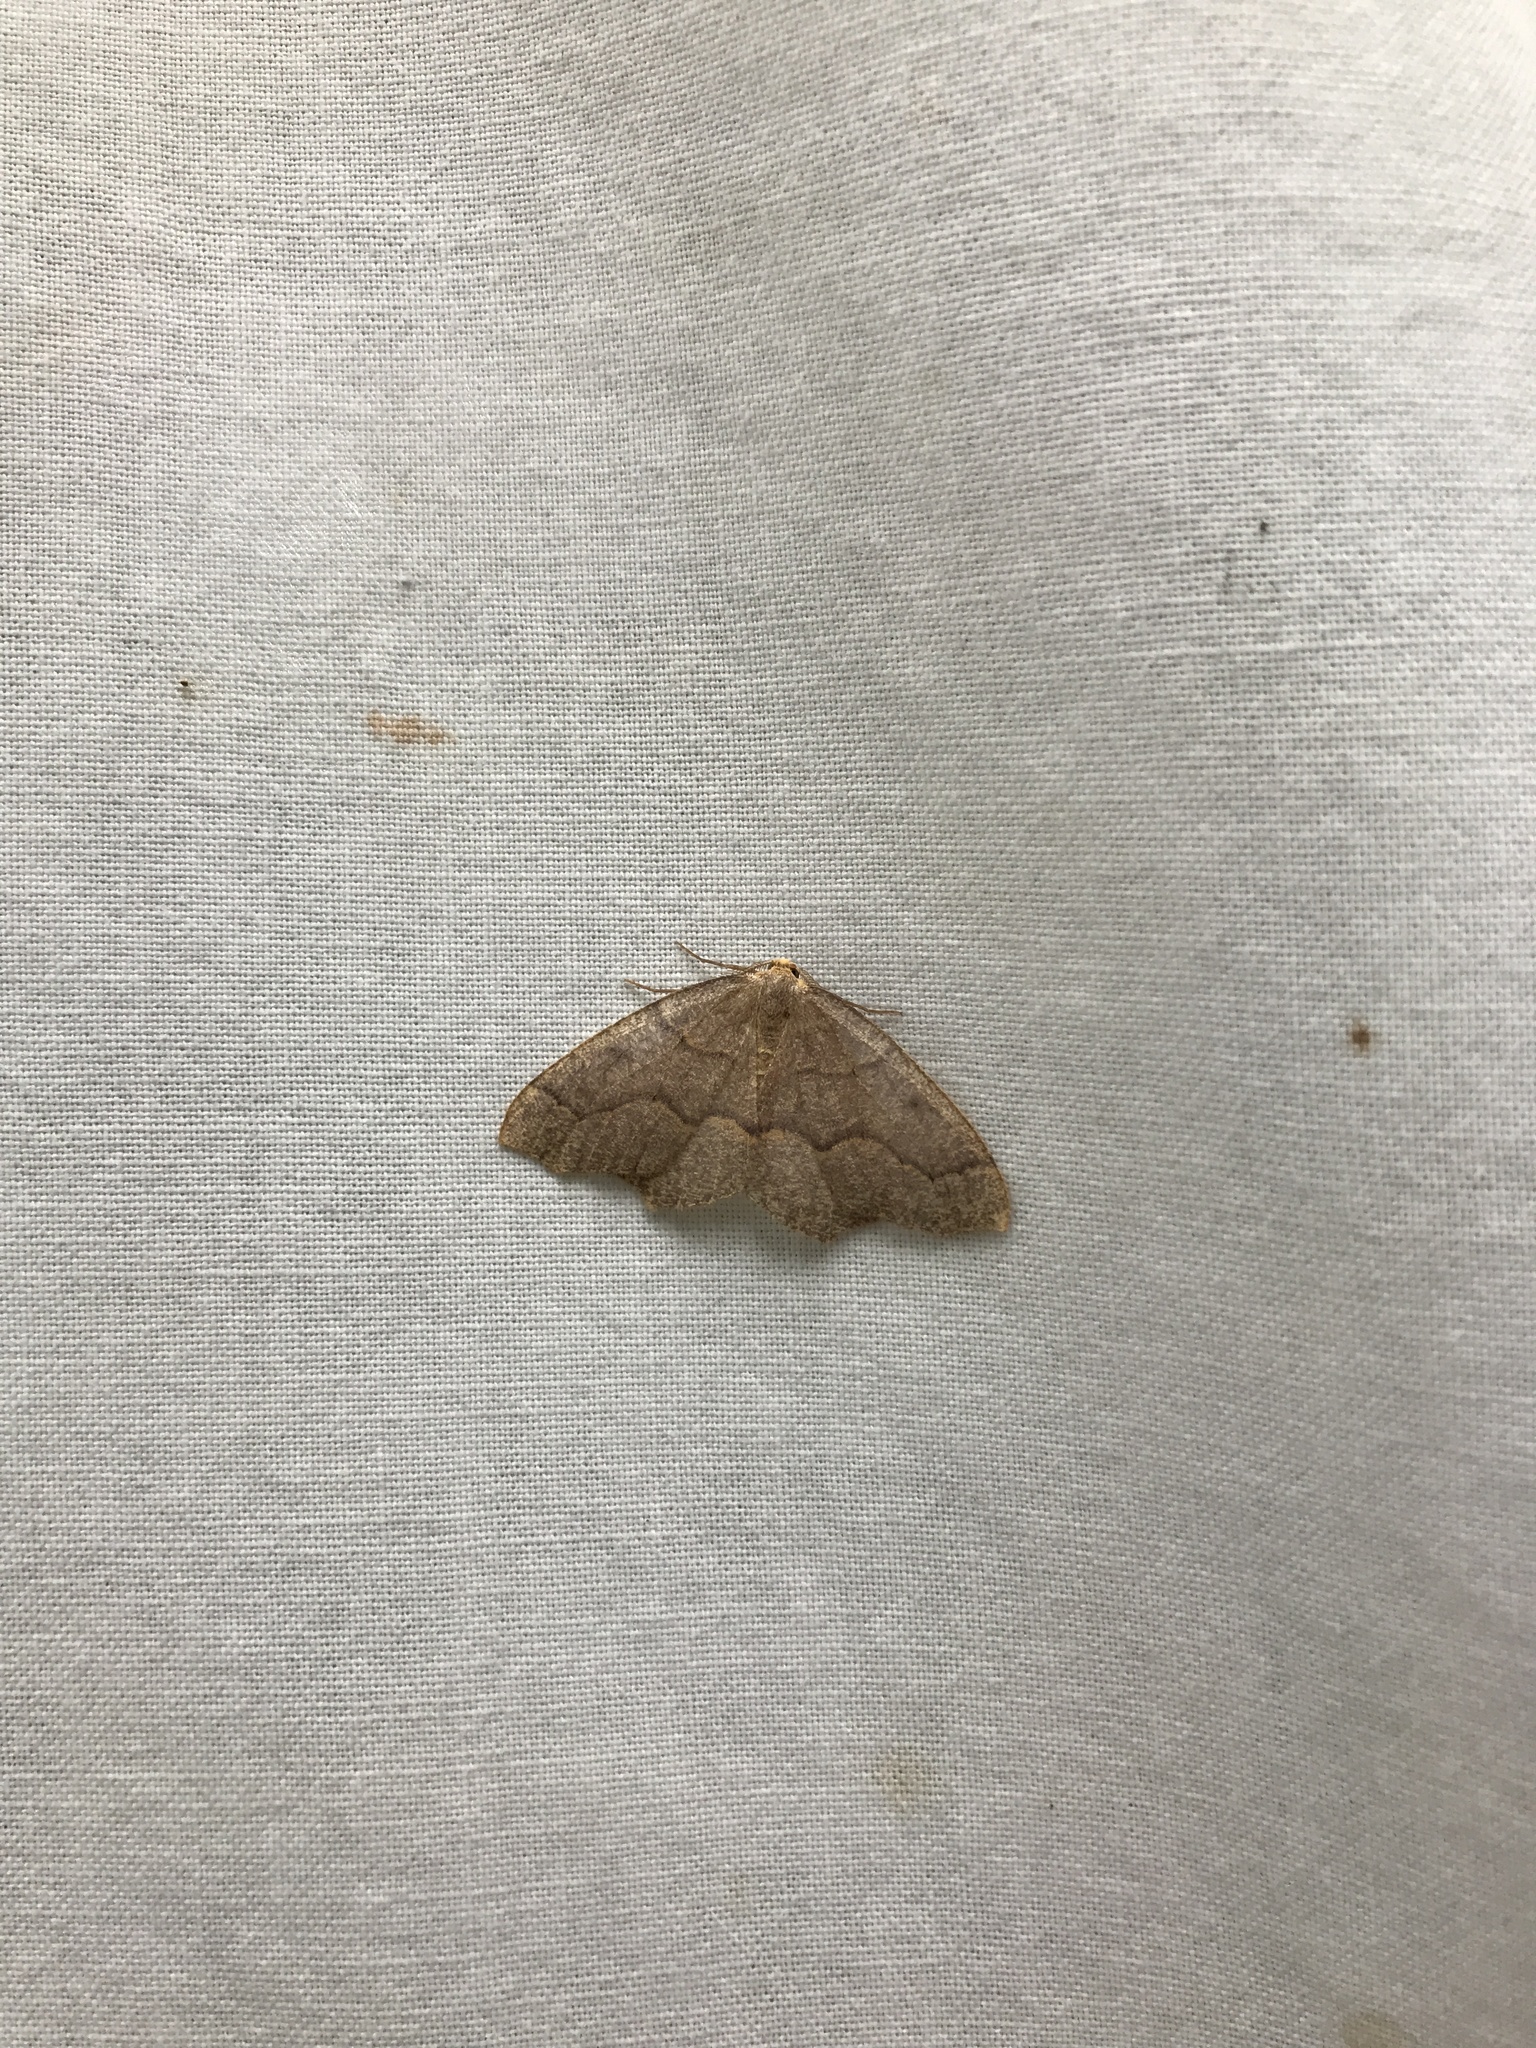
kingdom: Animalia
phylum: Arthropoda
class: Insecta
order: Lepidoptera
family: Geometridae
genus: Lambdina
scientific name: Lambdina fiscellaria
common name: Hemlock looper
